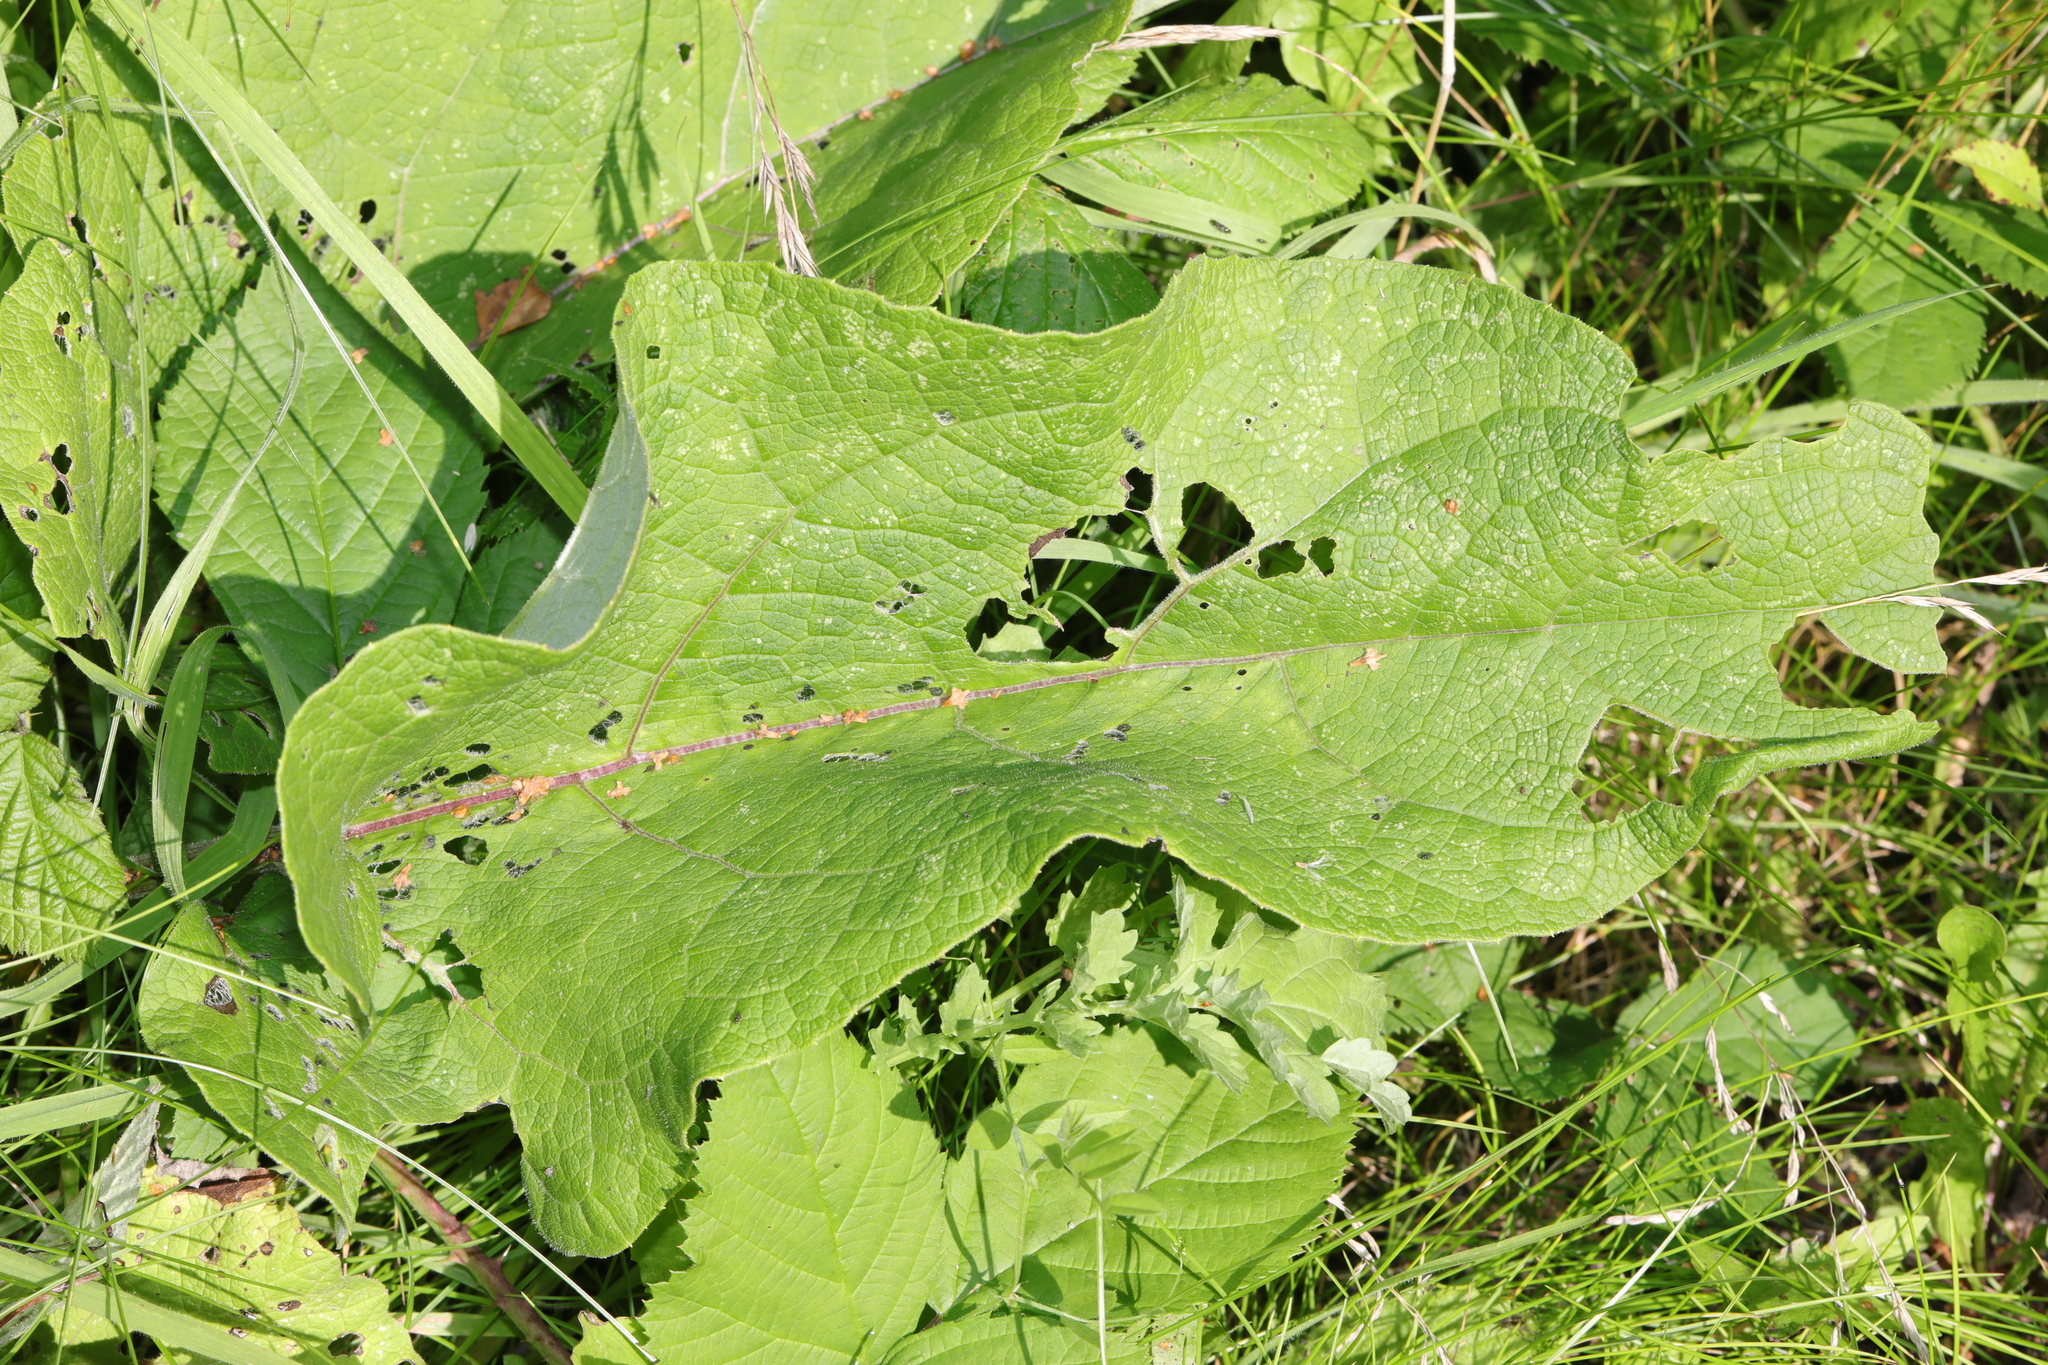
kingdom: Plantae
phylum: Tracheophyta
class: Magnoliopsida
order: Asterales
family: Asteraceae
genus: Arctium
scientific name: Arctium minus
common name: Lesser burdock
